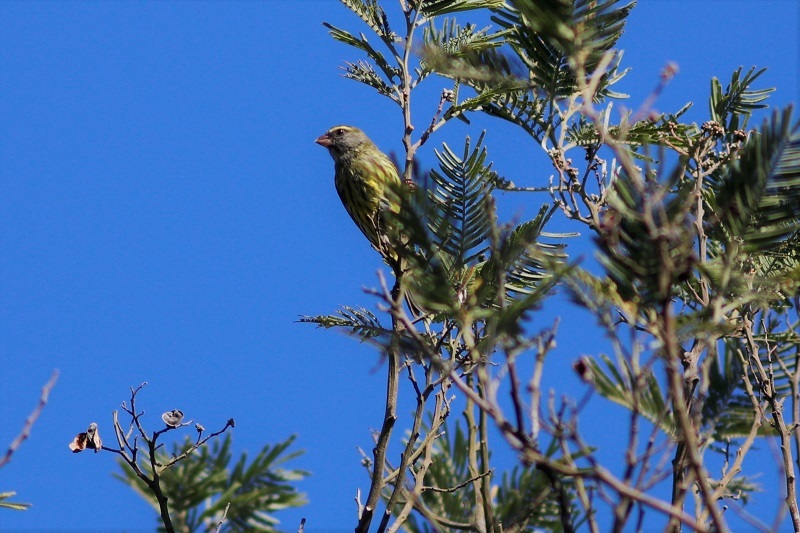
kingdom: Animalia
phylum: Chordata
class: Aves
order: Passeriformes
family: Fringillidae
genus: Crithagra
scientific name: Crithagra scotops
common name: Forest canary
